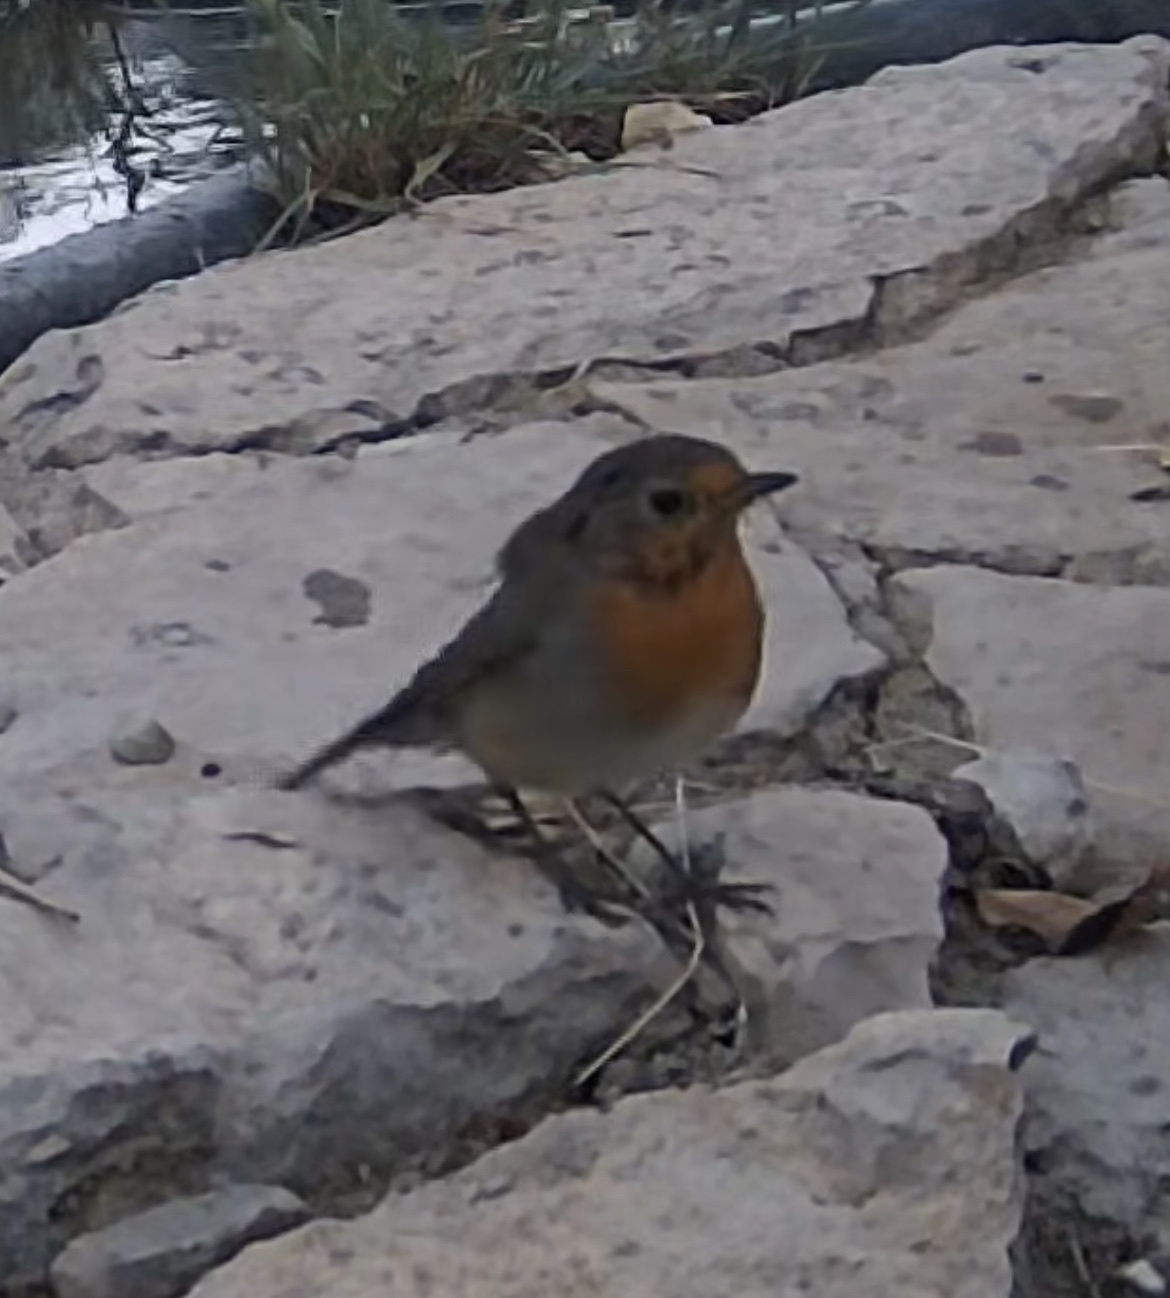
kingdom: Animalia
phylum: Chordata
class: Aves
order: Passeriformes
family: Muscicapidae
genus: Erithacus
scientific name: Erithacus rubecula
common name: European robin
